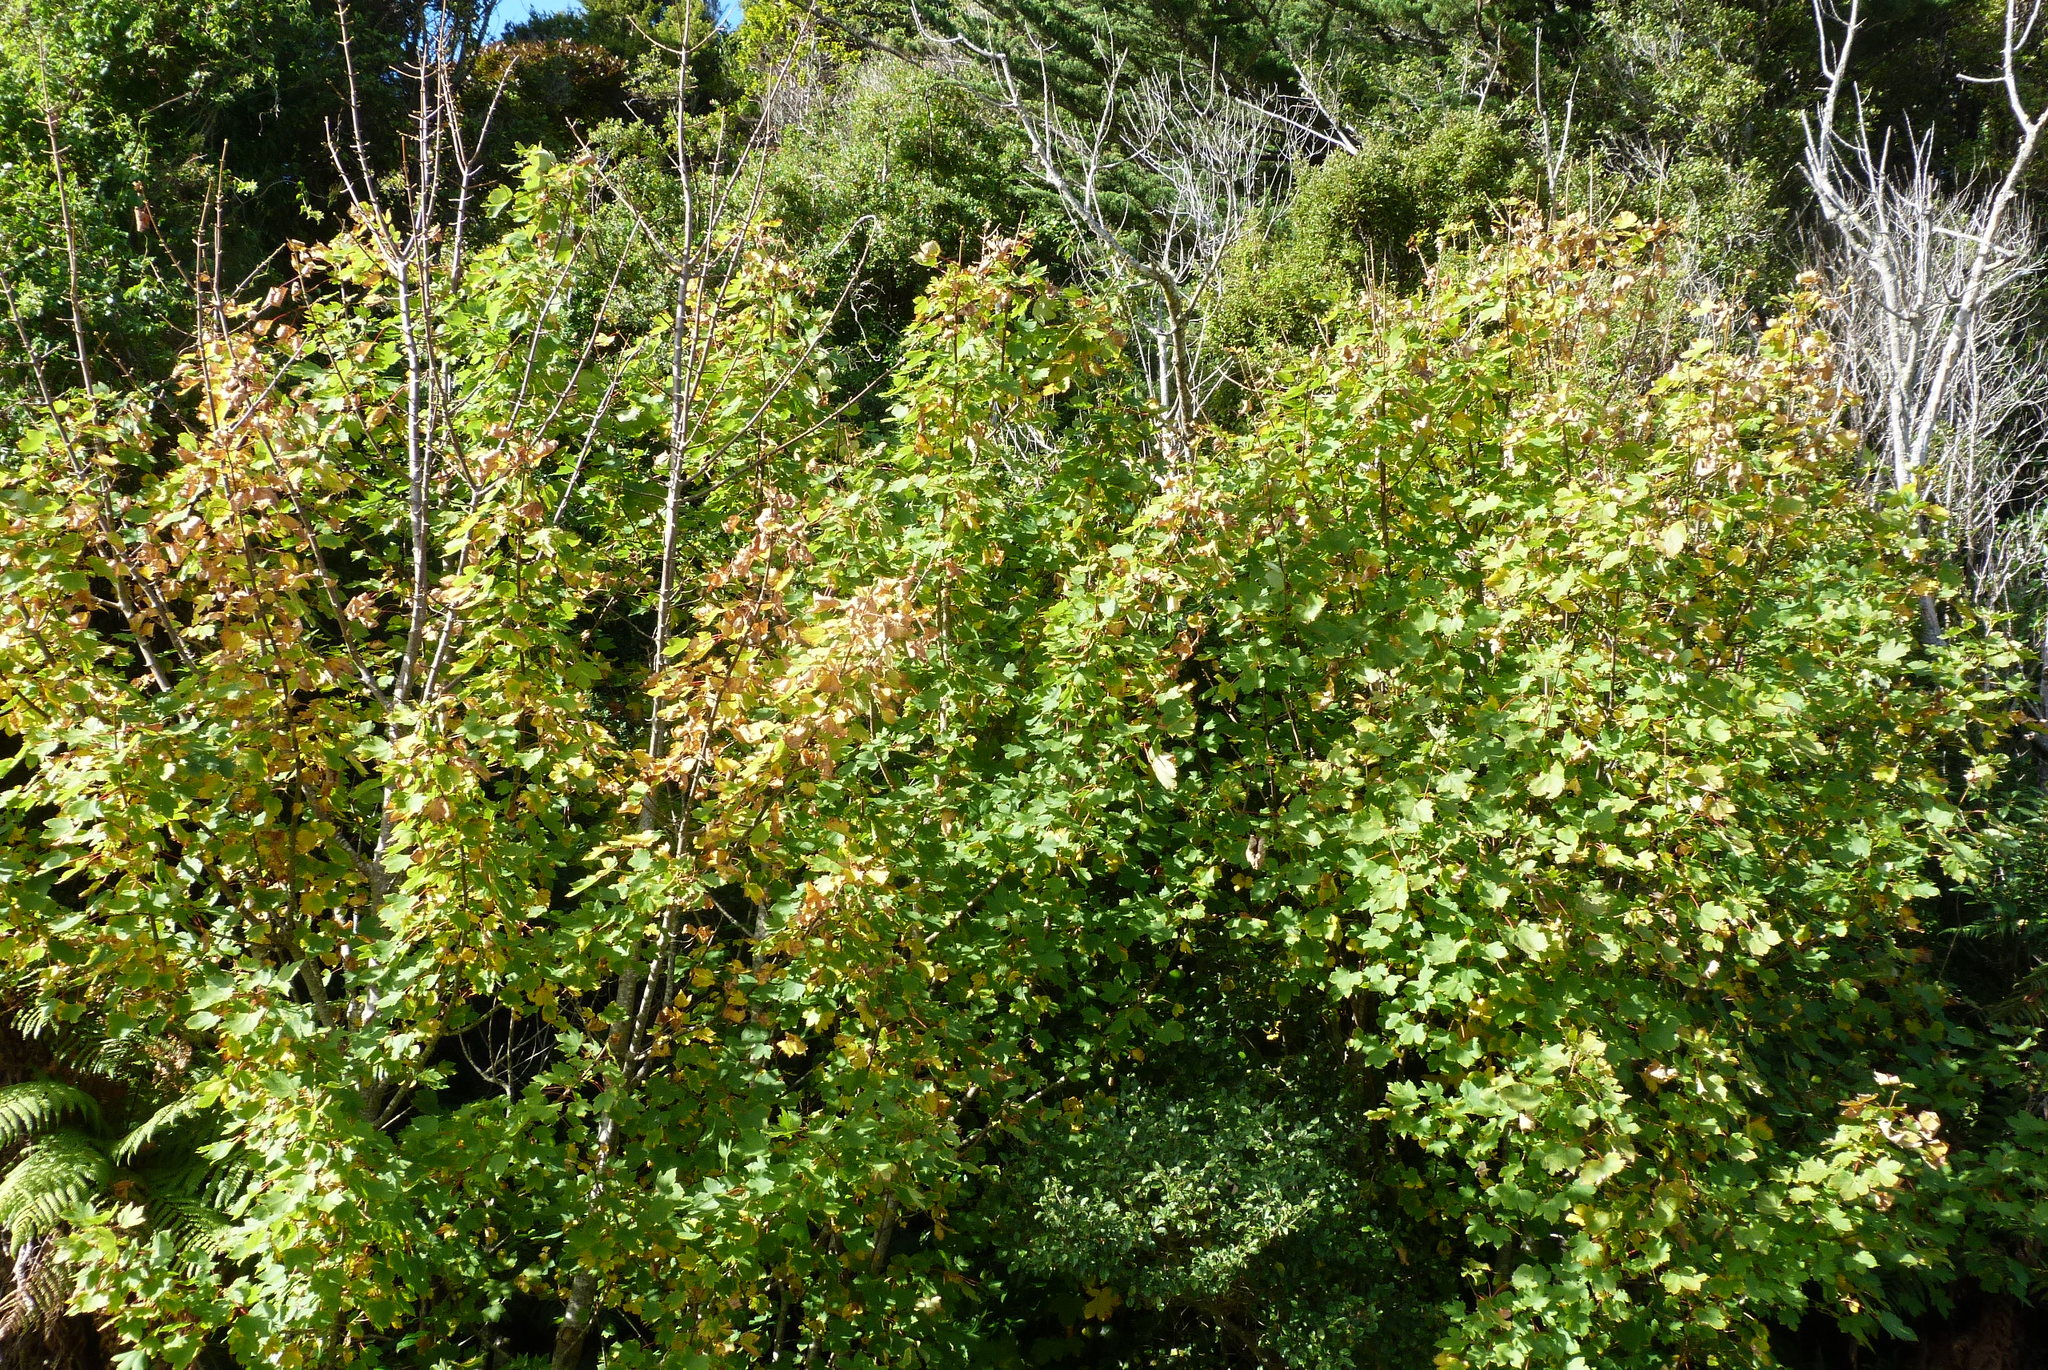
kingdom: Plantae
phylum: Tracheophyta
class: Magnoliopsida
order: Sapindales
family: Sapindaceae
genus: Acer
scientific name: Acer pseudoplatanus
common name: Sycamore
